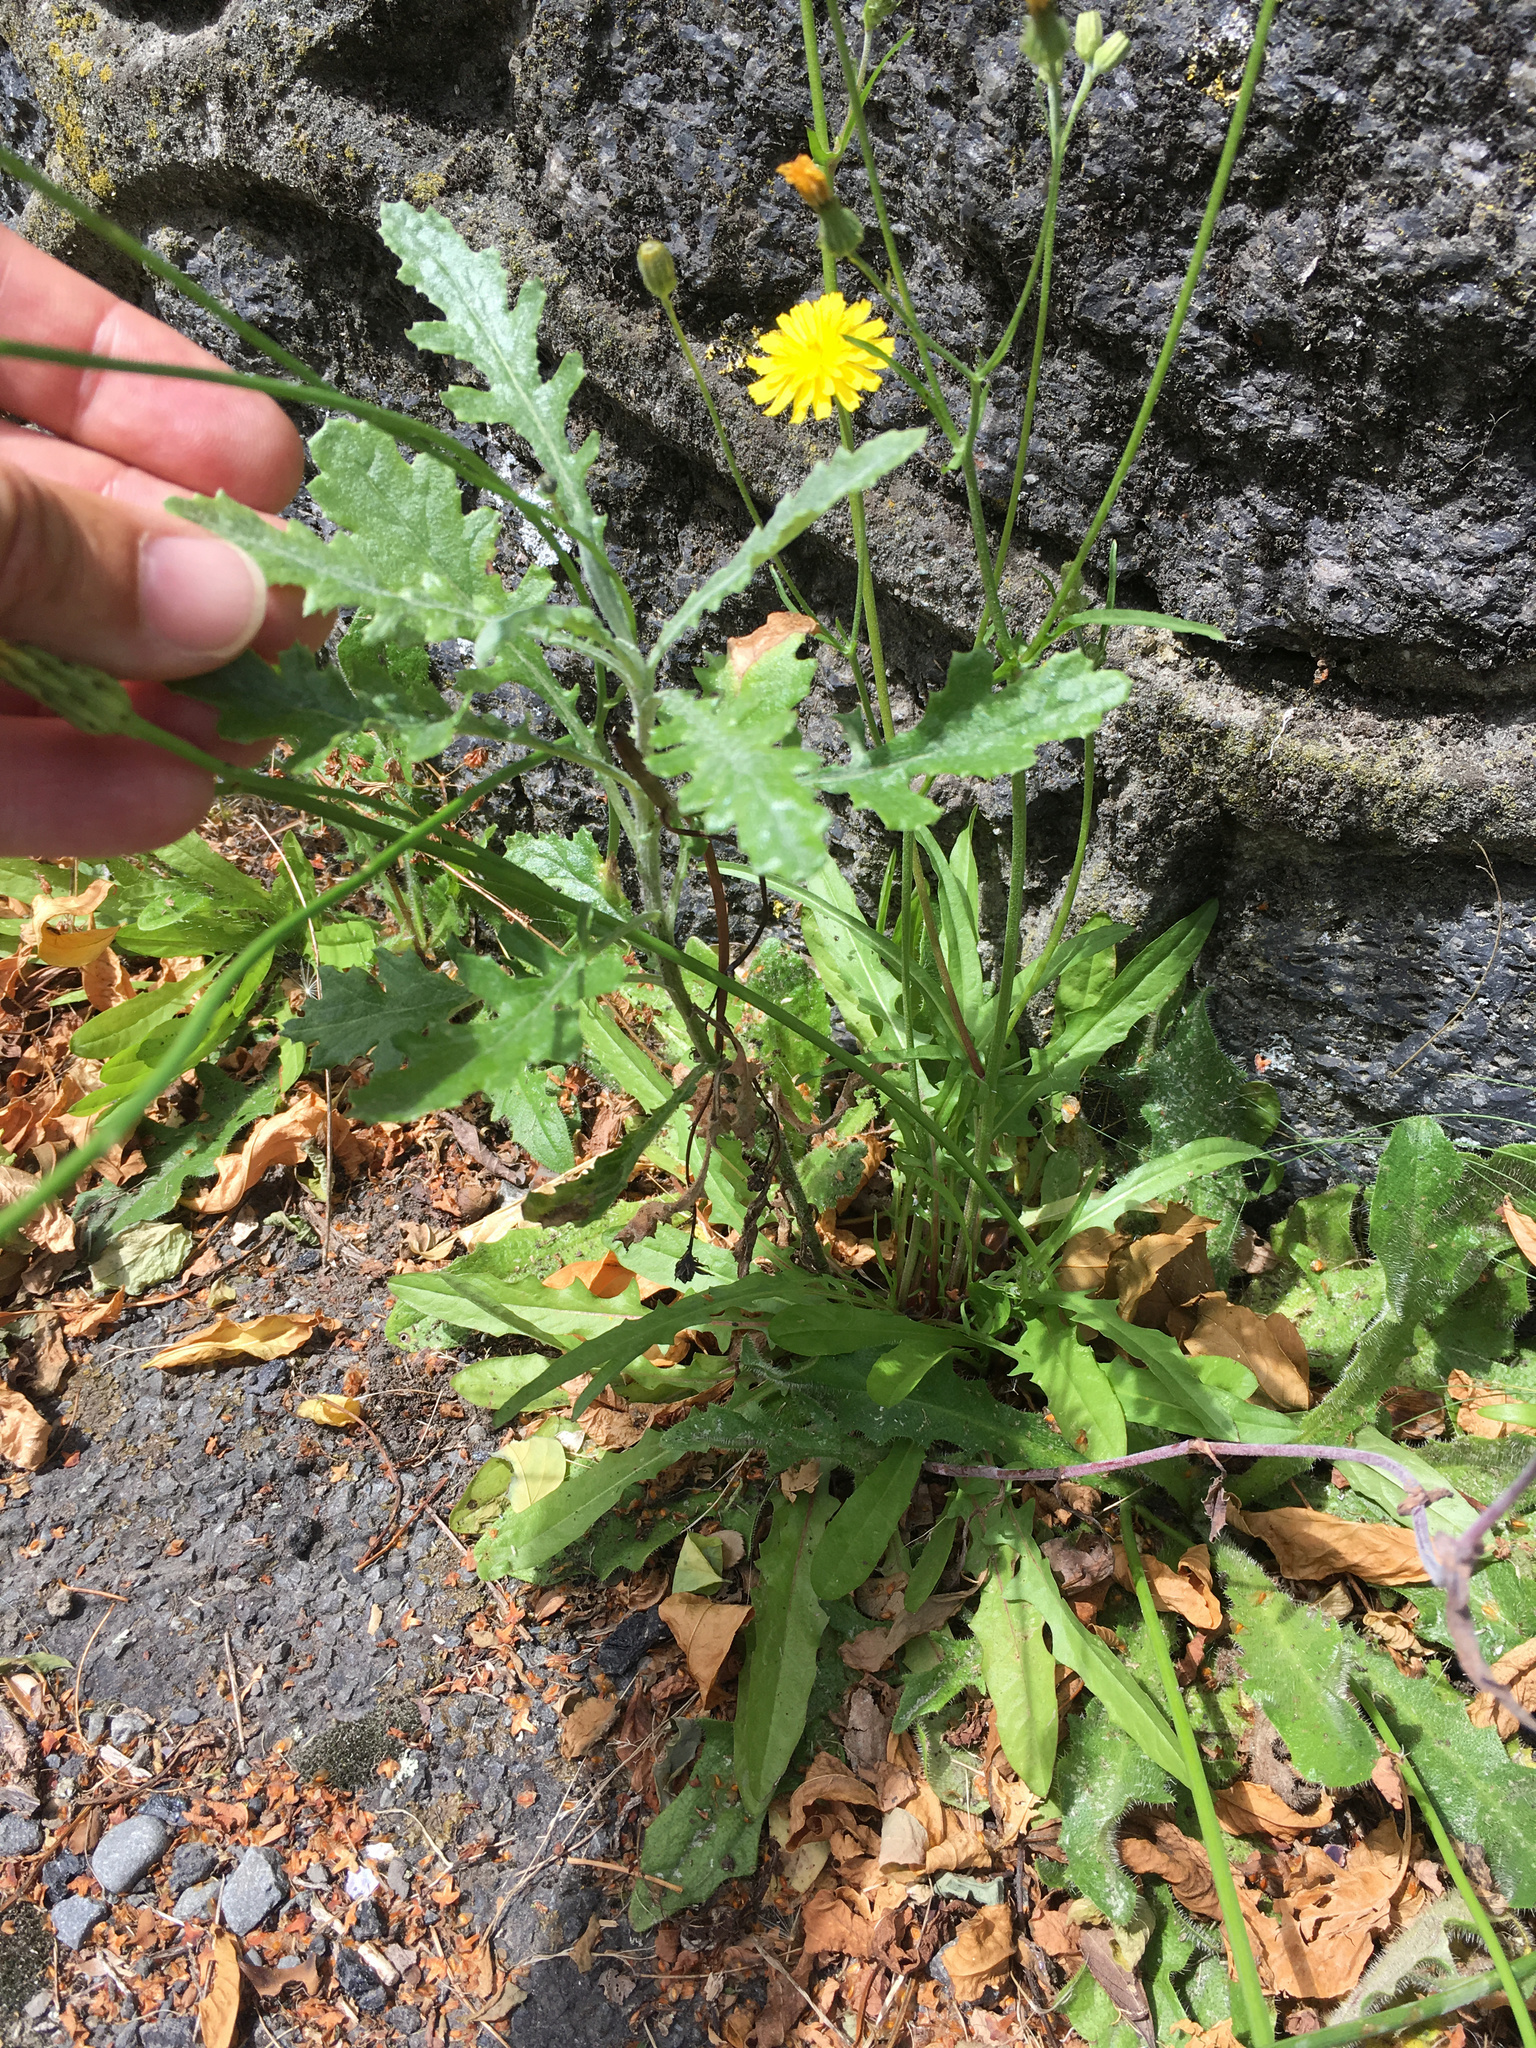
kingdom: Plantae
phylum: Tracheophyta
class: Magnoliopsida
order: Asterales
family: Asteraceae
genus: Senecio
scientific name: Senecio glomeratus
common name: Cutleaf burnweed
